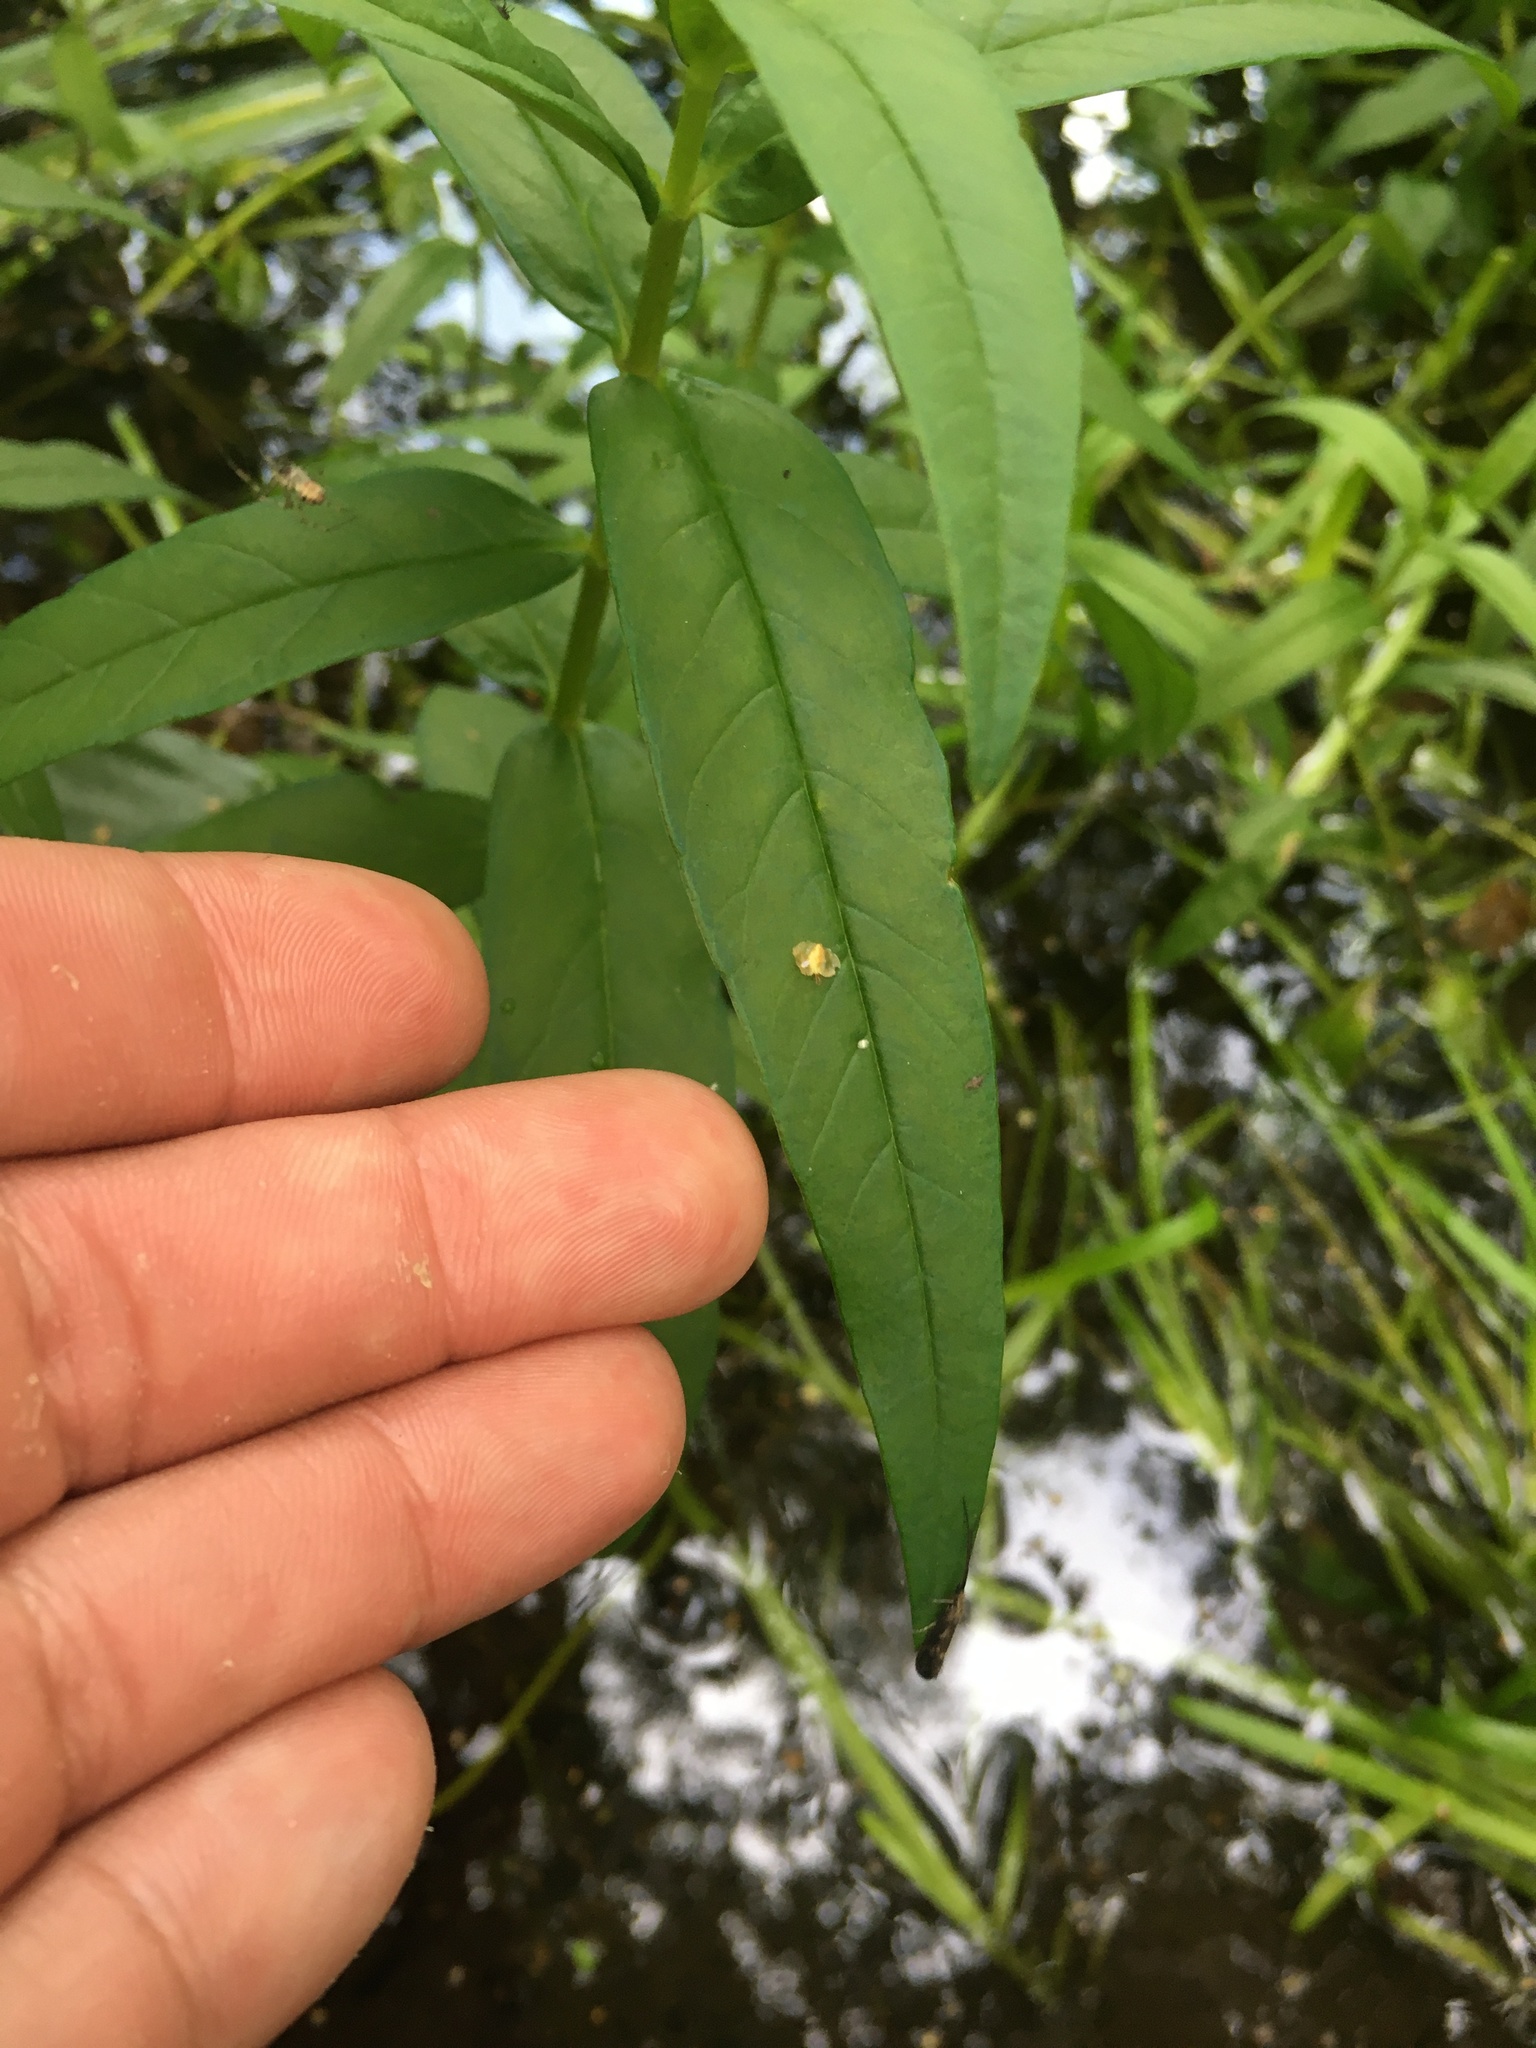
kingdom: Plantae
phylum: Tracheophyta
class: Magnoliopsida
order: Ericales
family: Primulaceae
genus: Lysimachia
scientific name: Lysimachia thyrsiflora
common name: Tufted loosestrife
